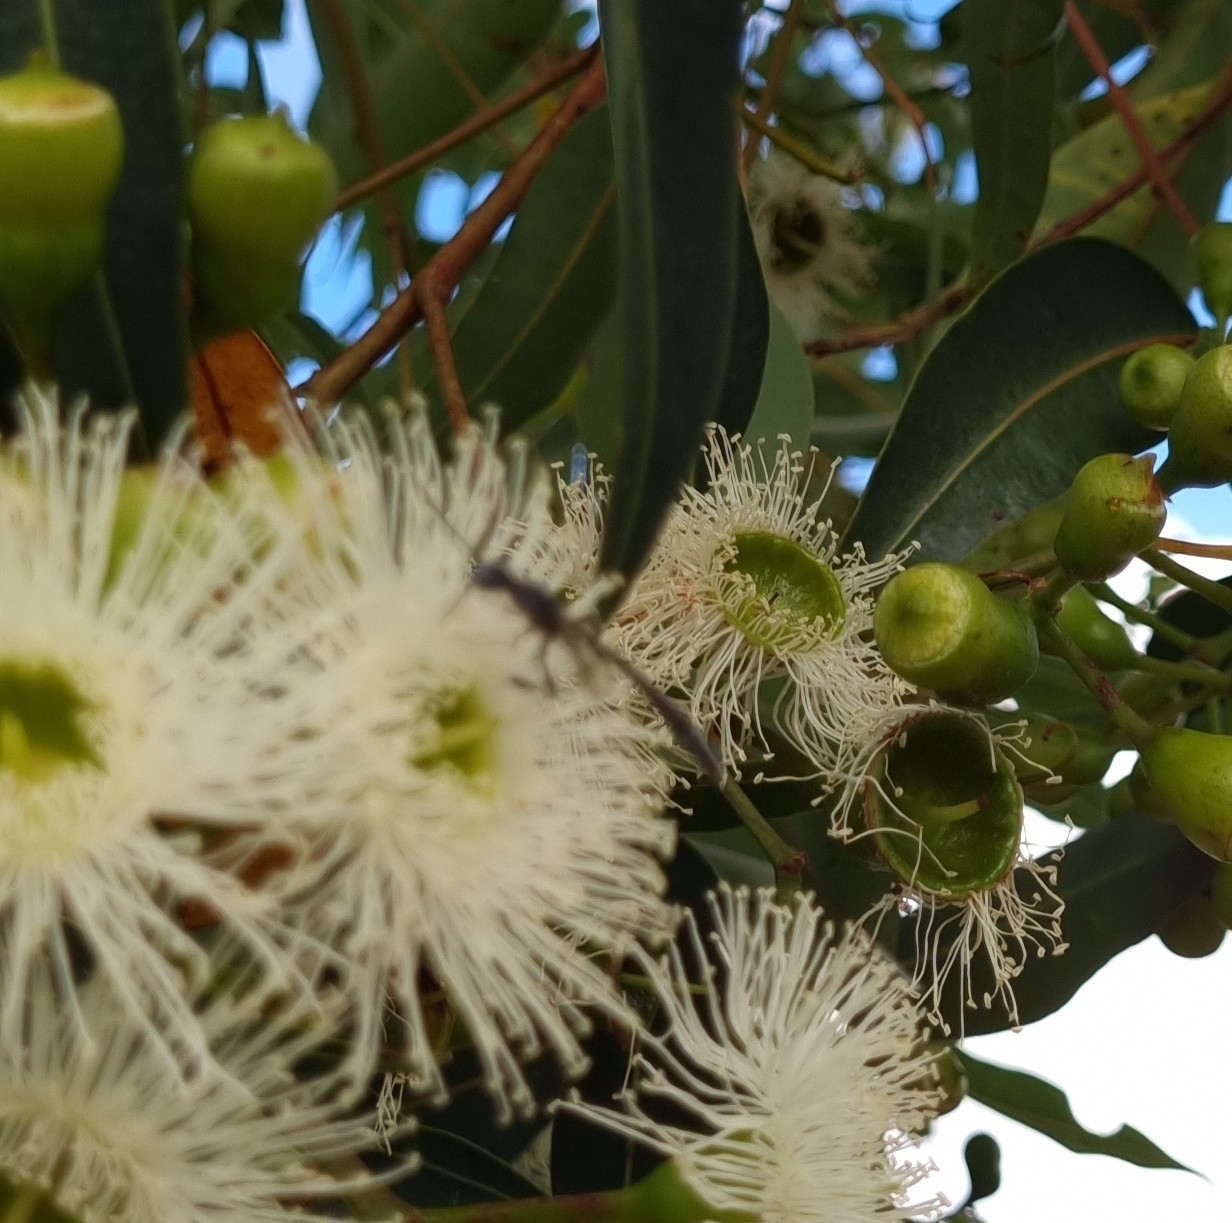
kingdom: Animalia
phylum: Arthropoda
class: Insecta
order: Hymenoptera
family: Gasteruptiidae
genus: Gasteruption
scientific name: Gasteruption
